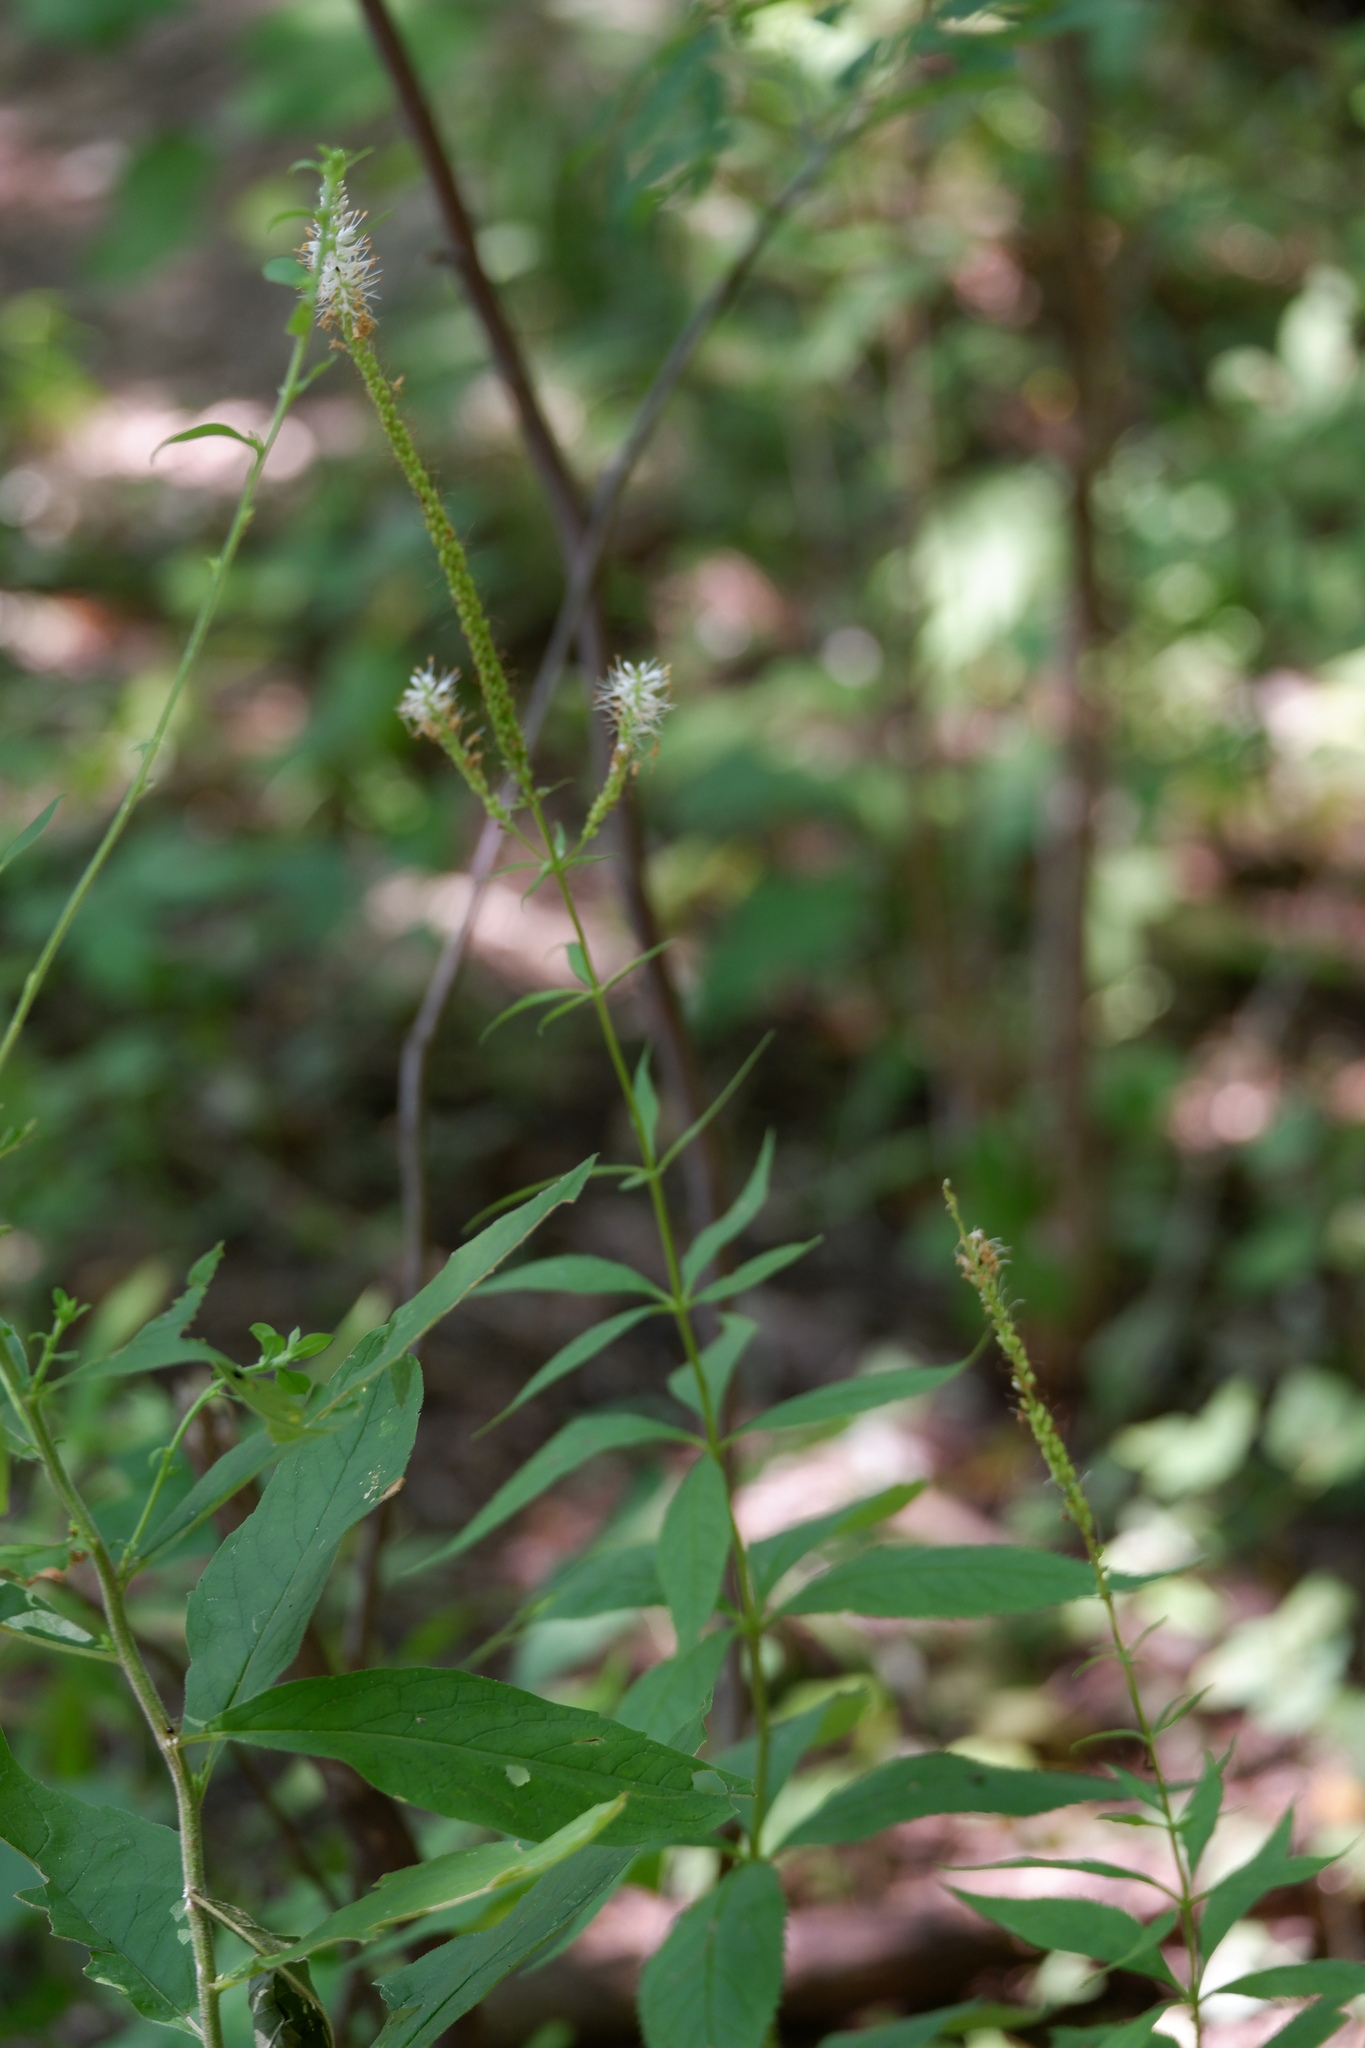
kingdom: Plantae
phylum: Tracheophyta
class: Magnoliopsida
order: Lamiales
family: Plantaginaceae
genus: Veronicastrum
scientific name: Veronicastrum virginicum
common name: Blackroot
